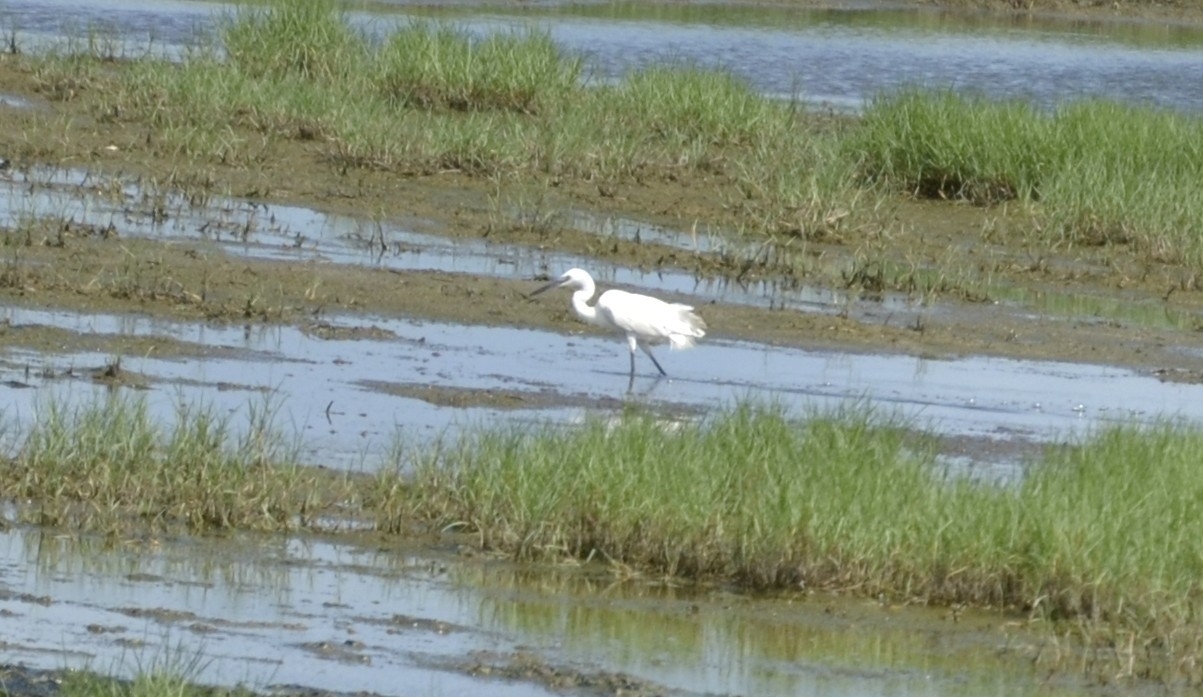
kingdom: Animalia
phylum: Chordata
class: Aves
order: Pelecaniformes
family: Ardeidae
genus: Egretta
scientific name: Egretta garzetta
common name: Little egret
